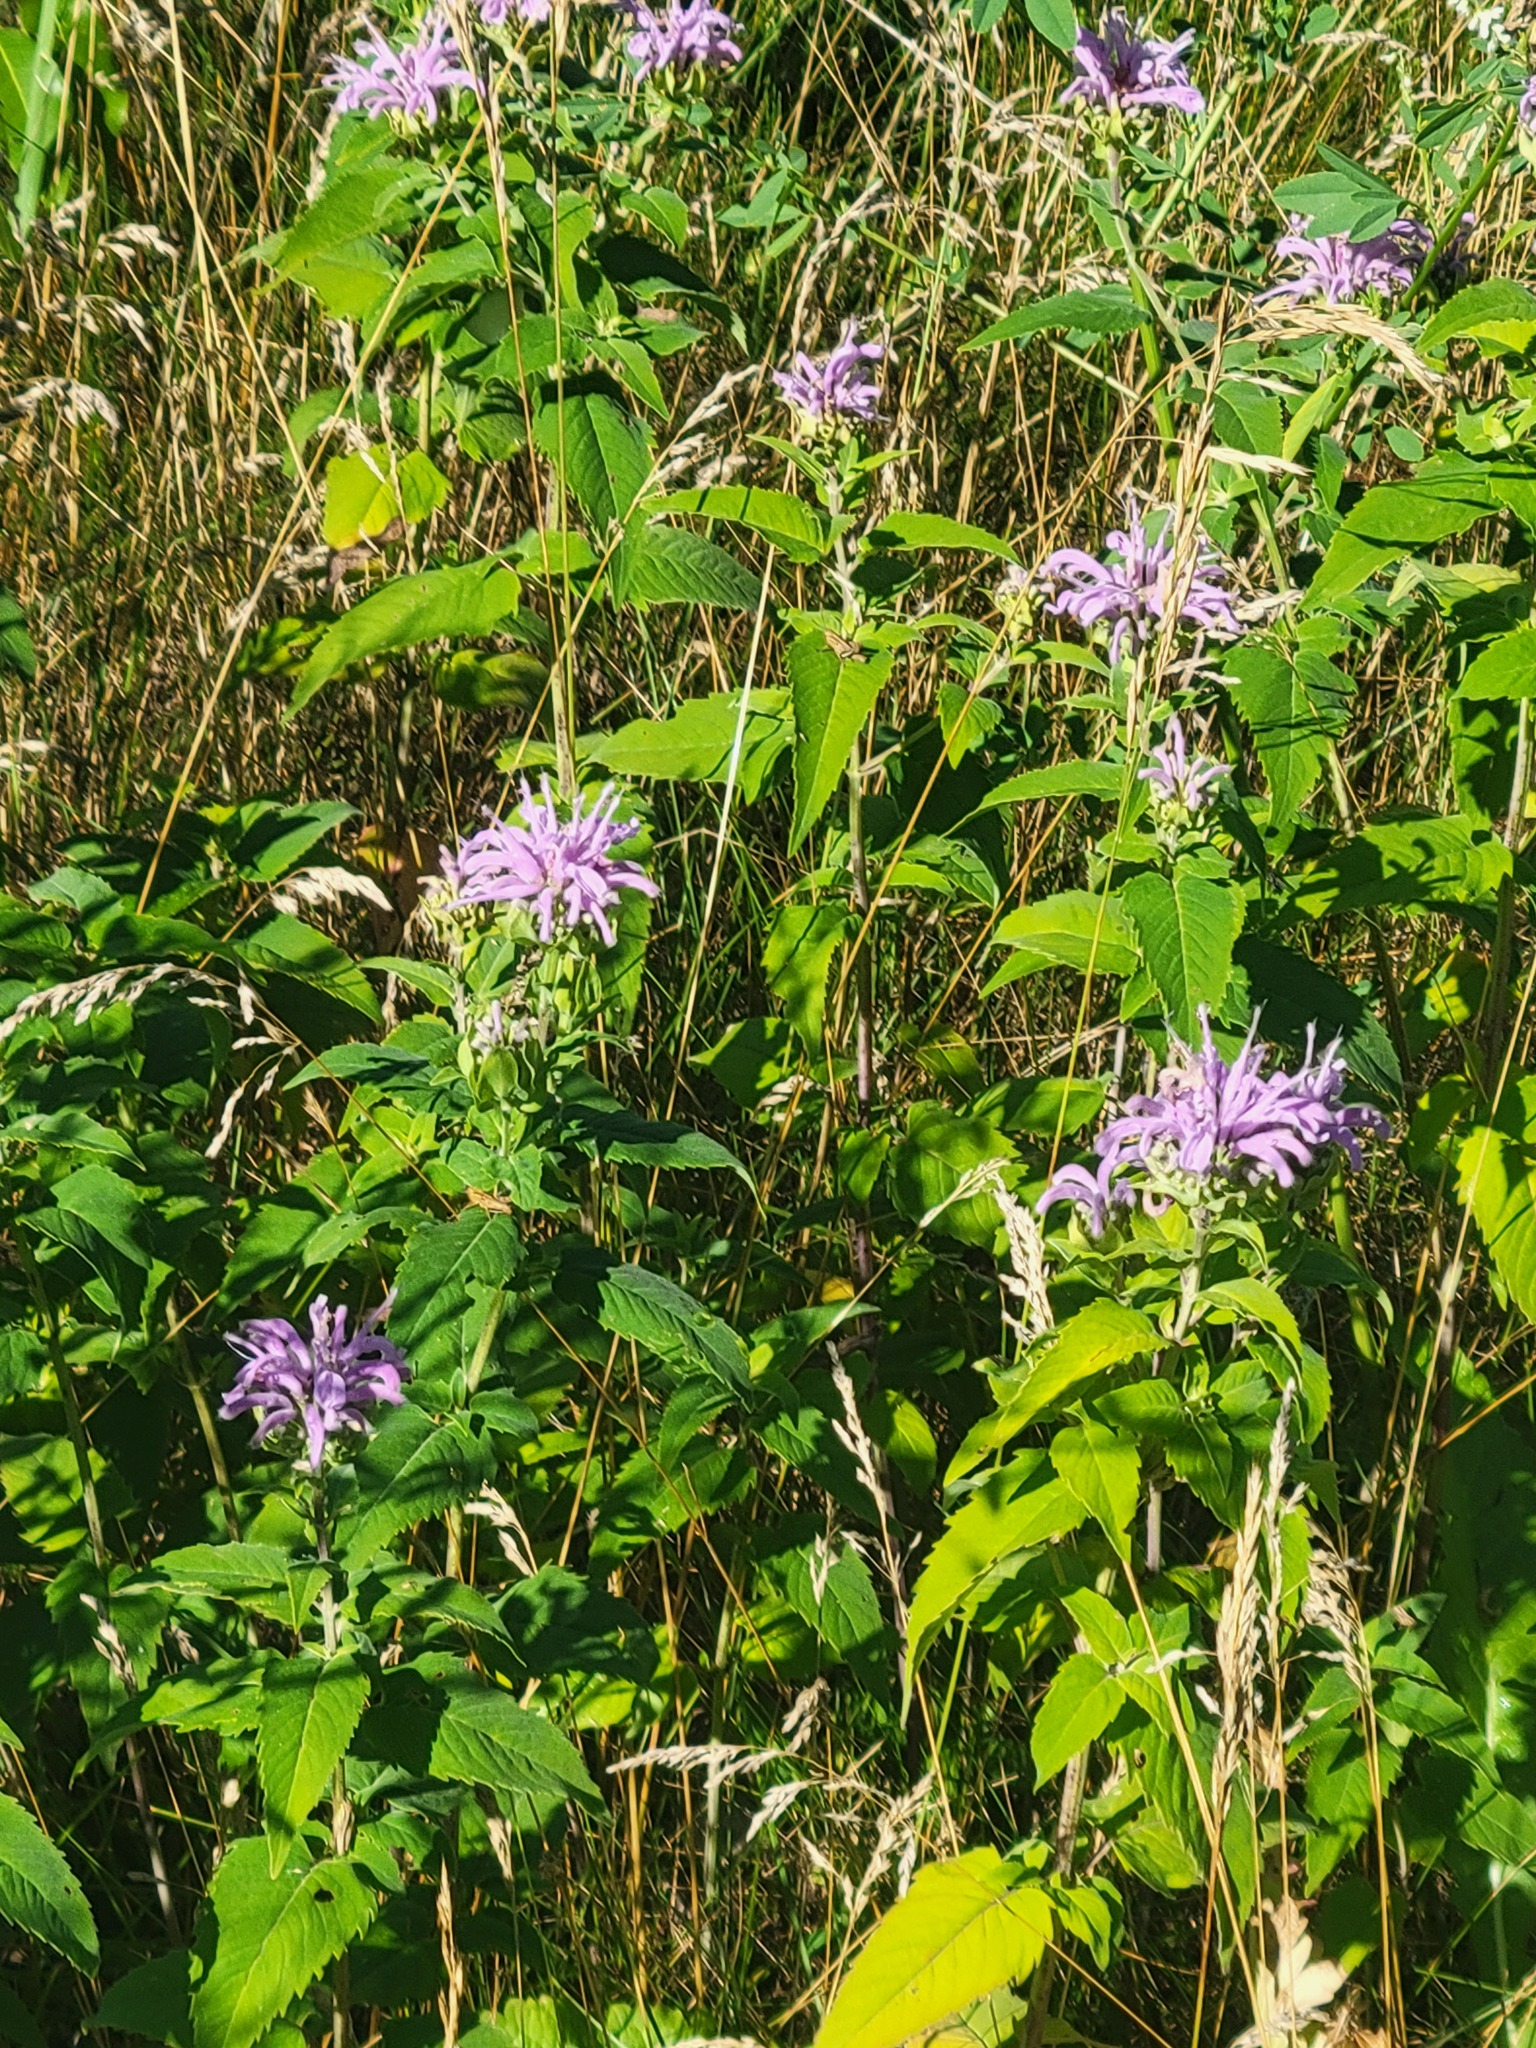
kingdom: Plantae
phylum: Tracheophyta
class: Magnoliopsida
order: Lamiales
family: Lamiaceae
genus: Monarda
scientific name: Monarda fistulosa
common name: Purple beebalm
